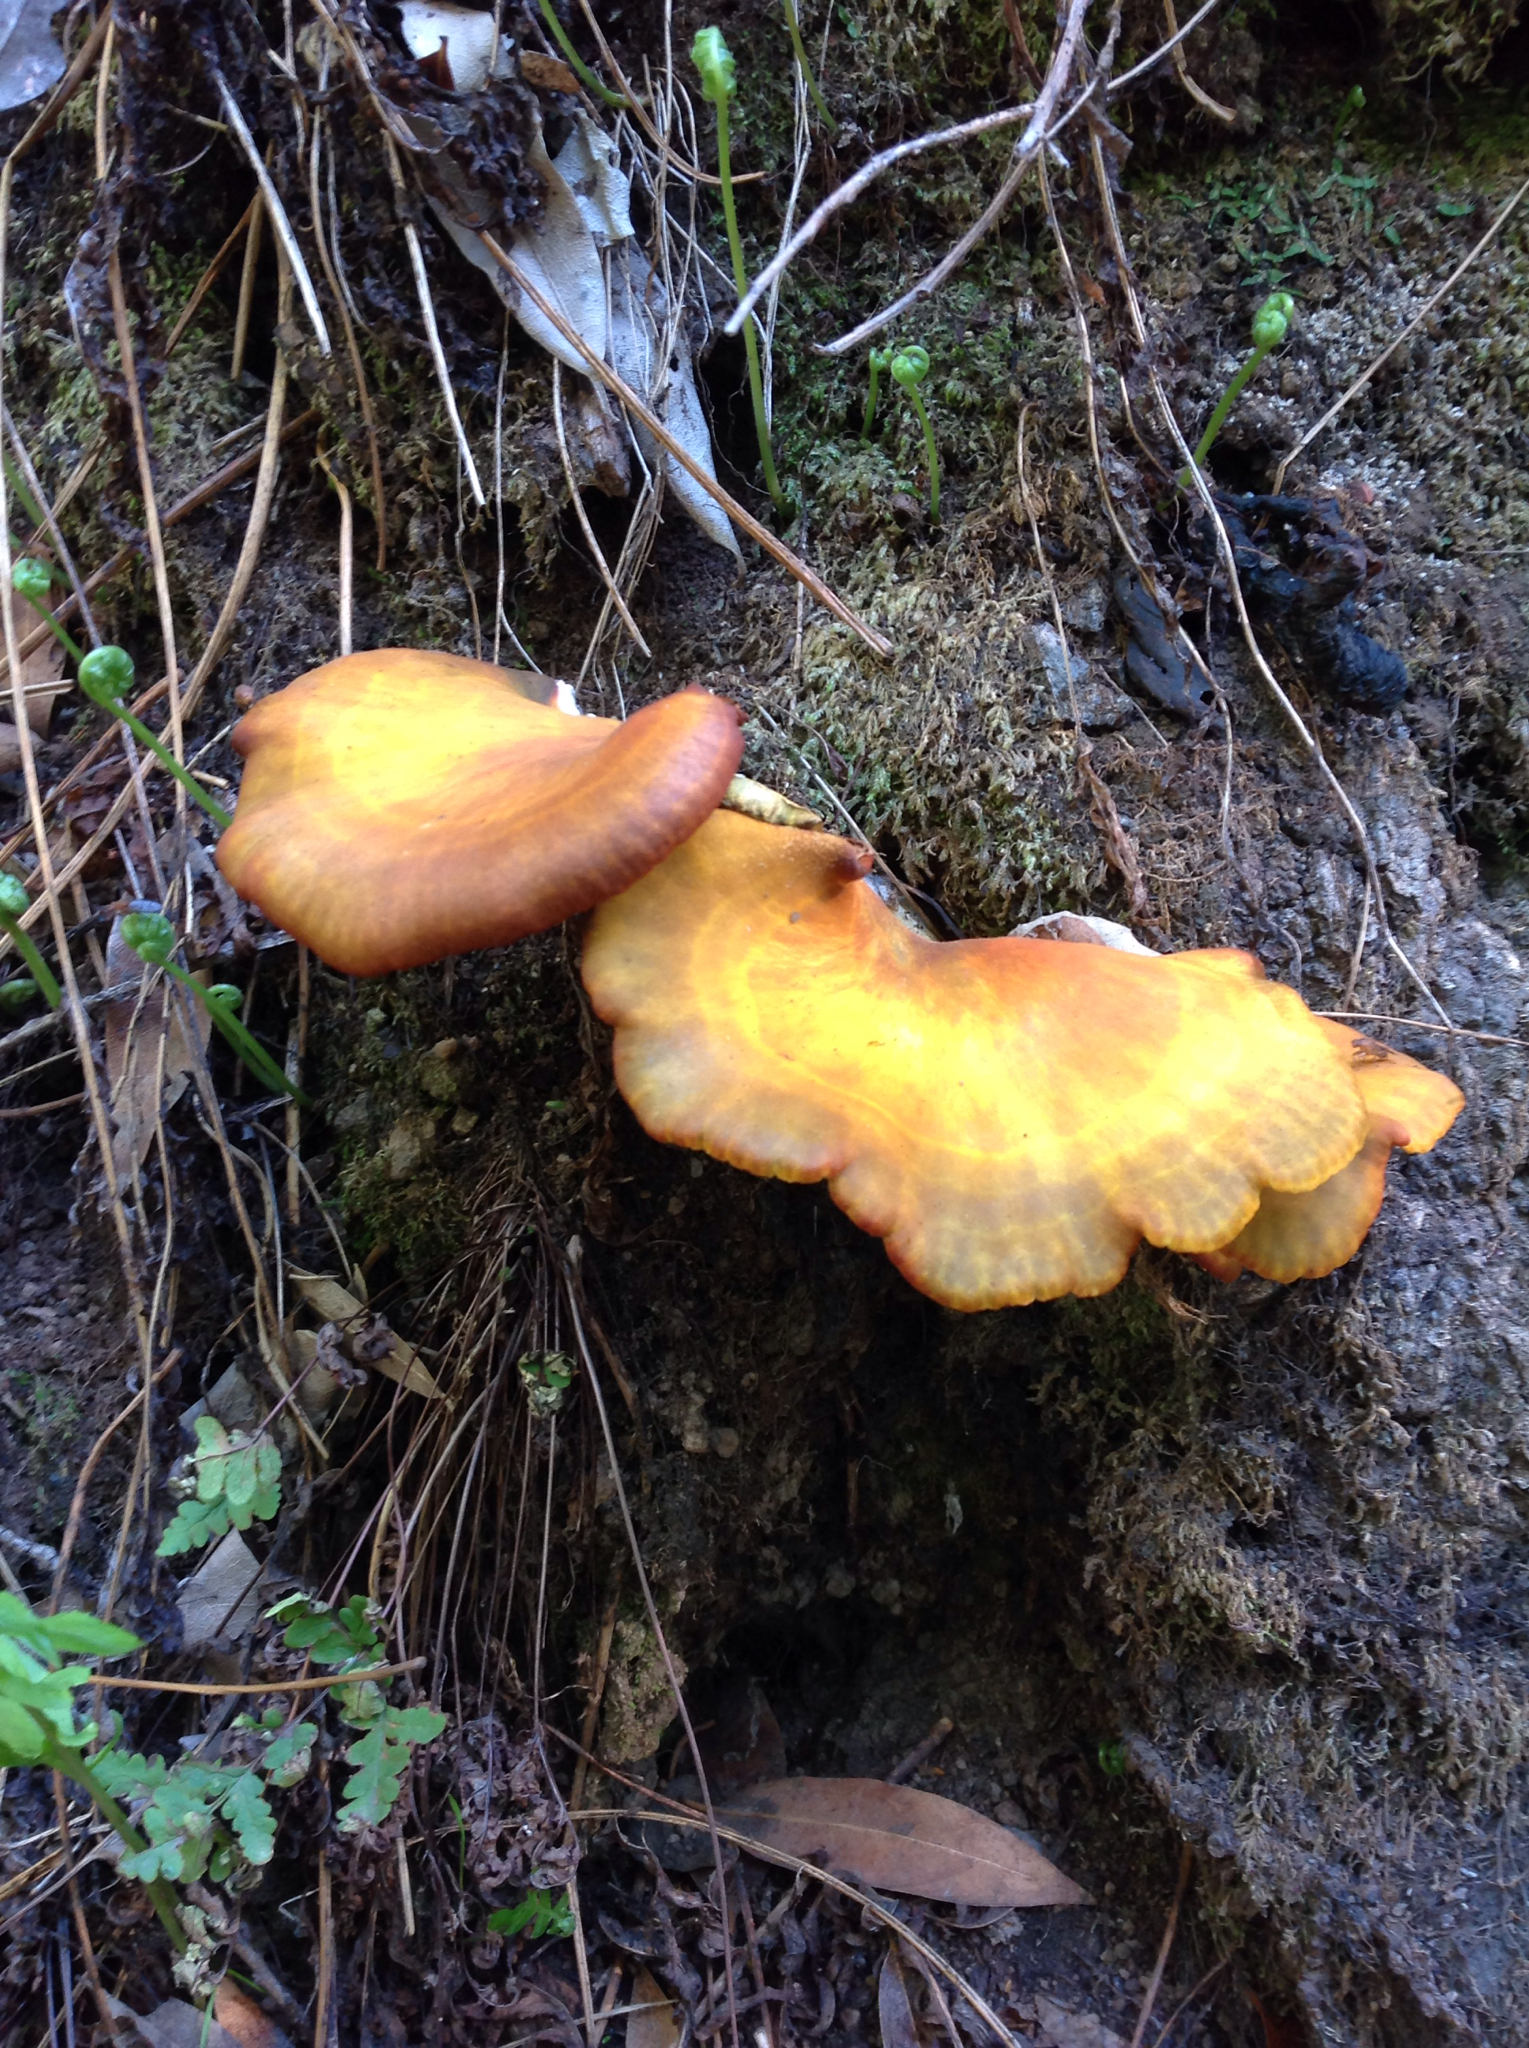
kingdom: Fungi
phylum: Basidiomycota
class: Agaricomycetes
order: Agaricales
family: Omphalotaceae
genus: Omphalotus
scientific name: Omphalotus olivascens
